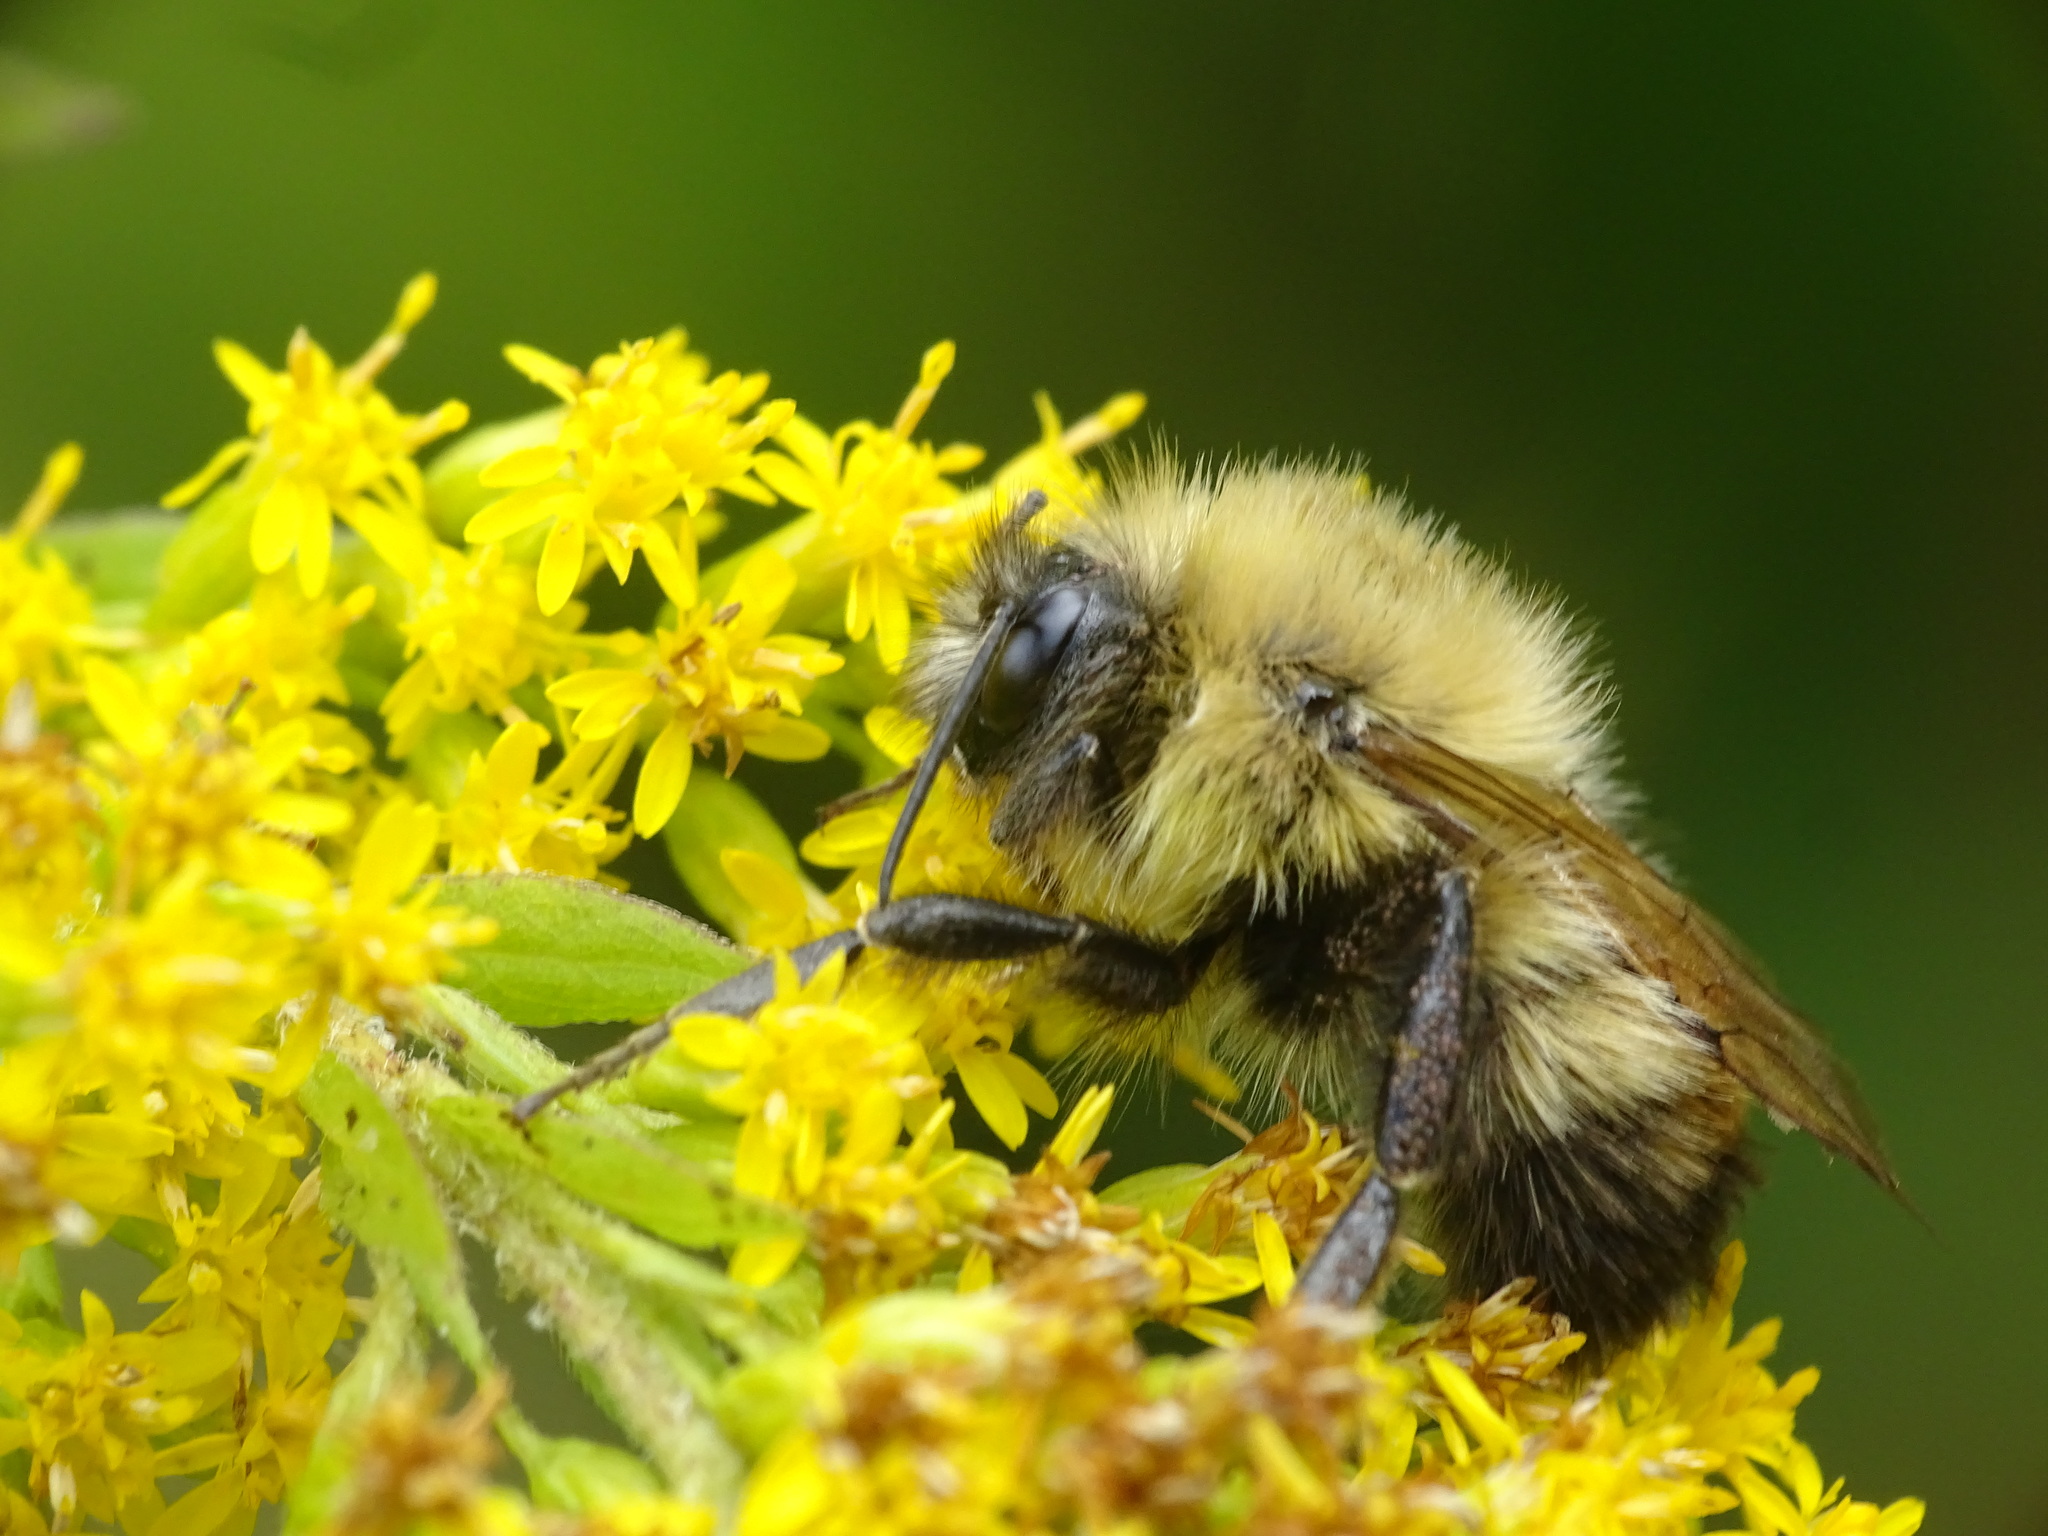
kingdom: Animalia
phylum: Arthropoda
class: Insecta
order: Hymenoptera
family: Apidae
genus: Bombus
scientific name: Bombus perplexus
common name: Confusing bumble bee
